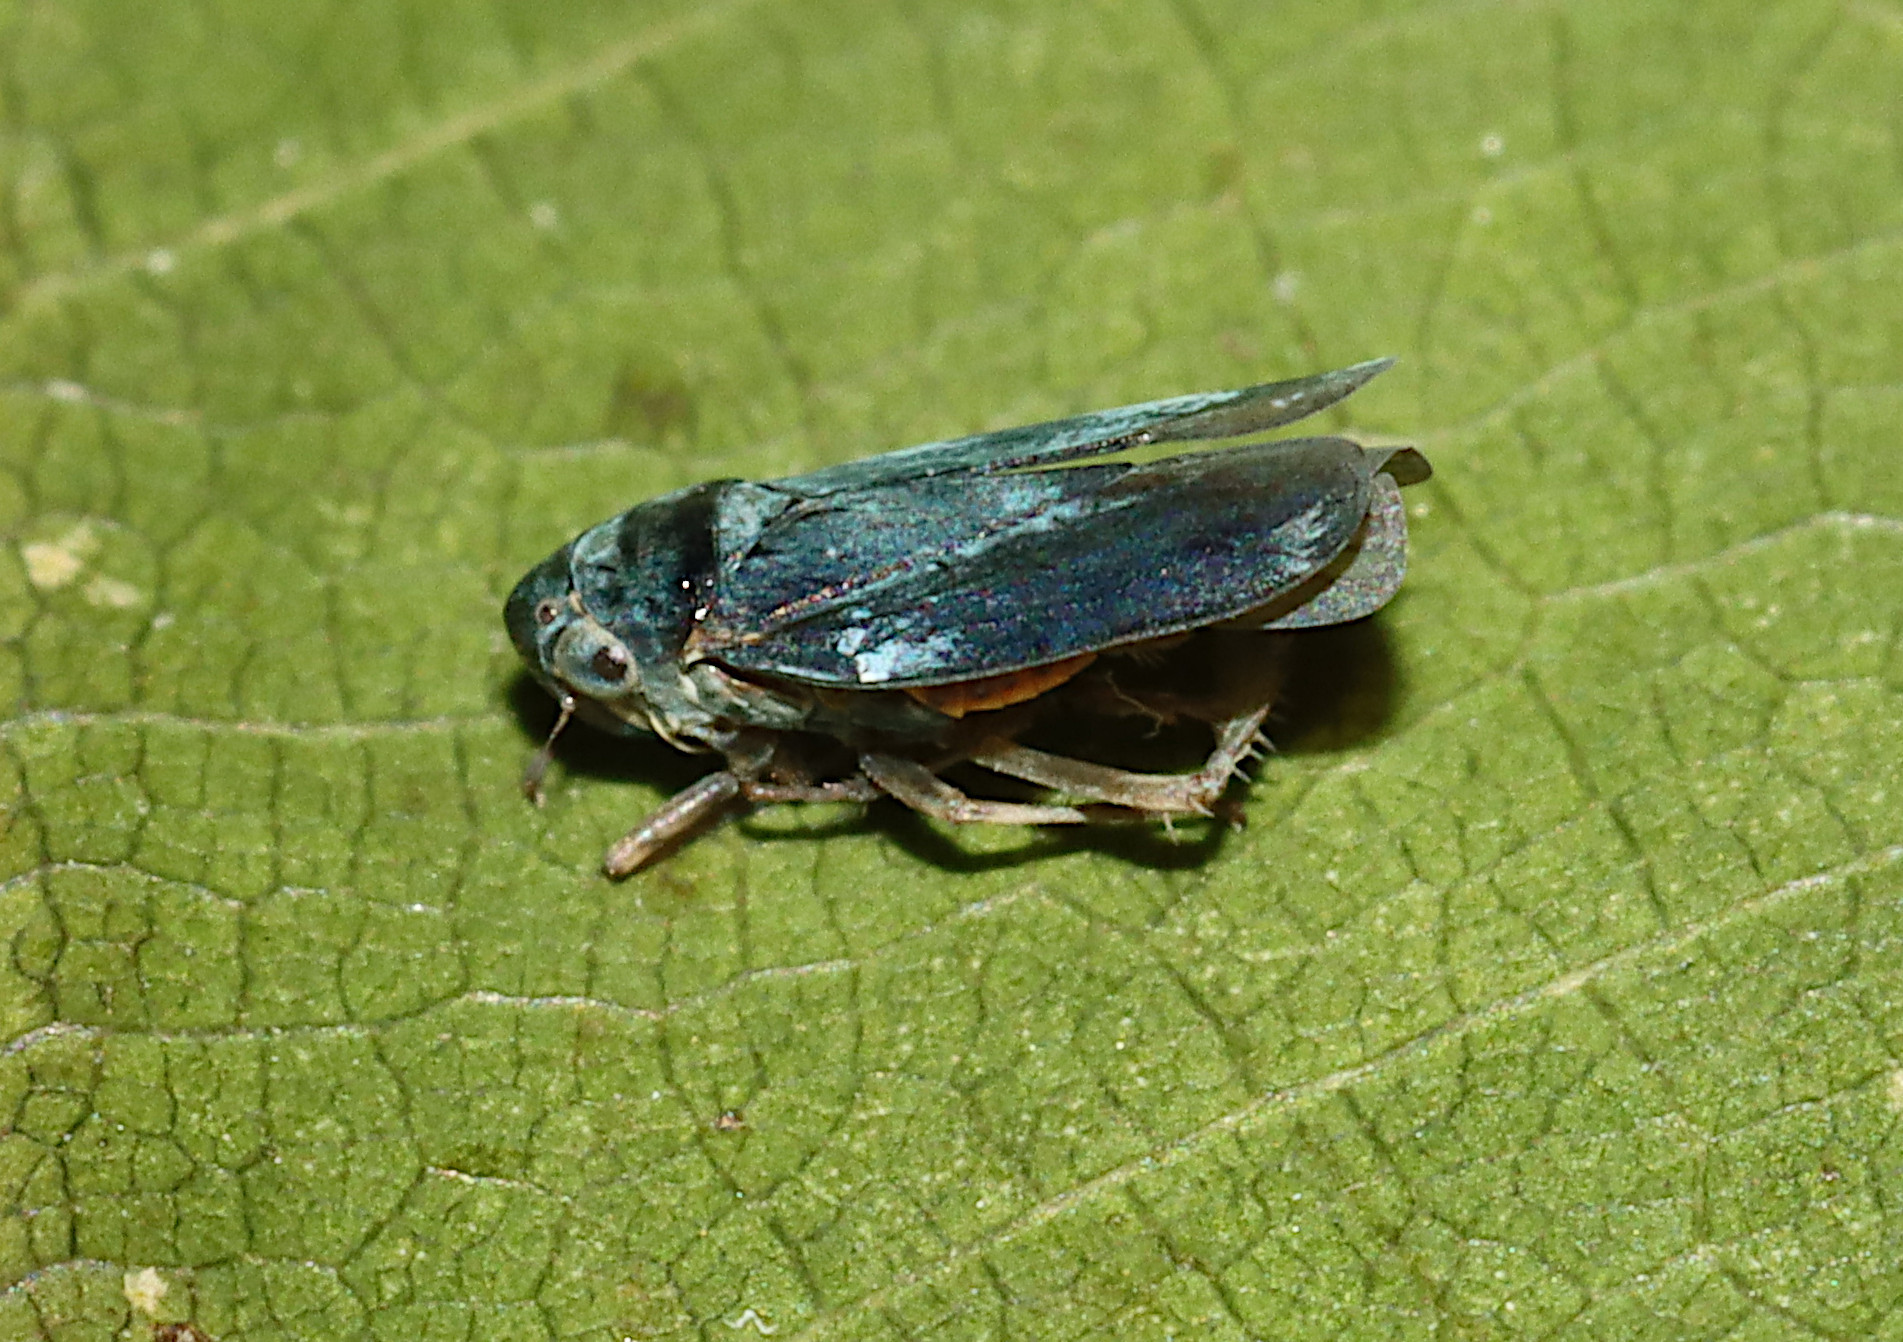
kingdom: Animalia
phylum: Arthropoda
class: Insecta
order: Hemiptera
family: Cicadellidae
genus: Ciminius
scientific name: Ciminius hartii
